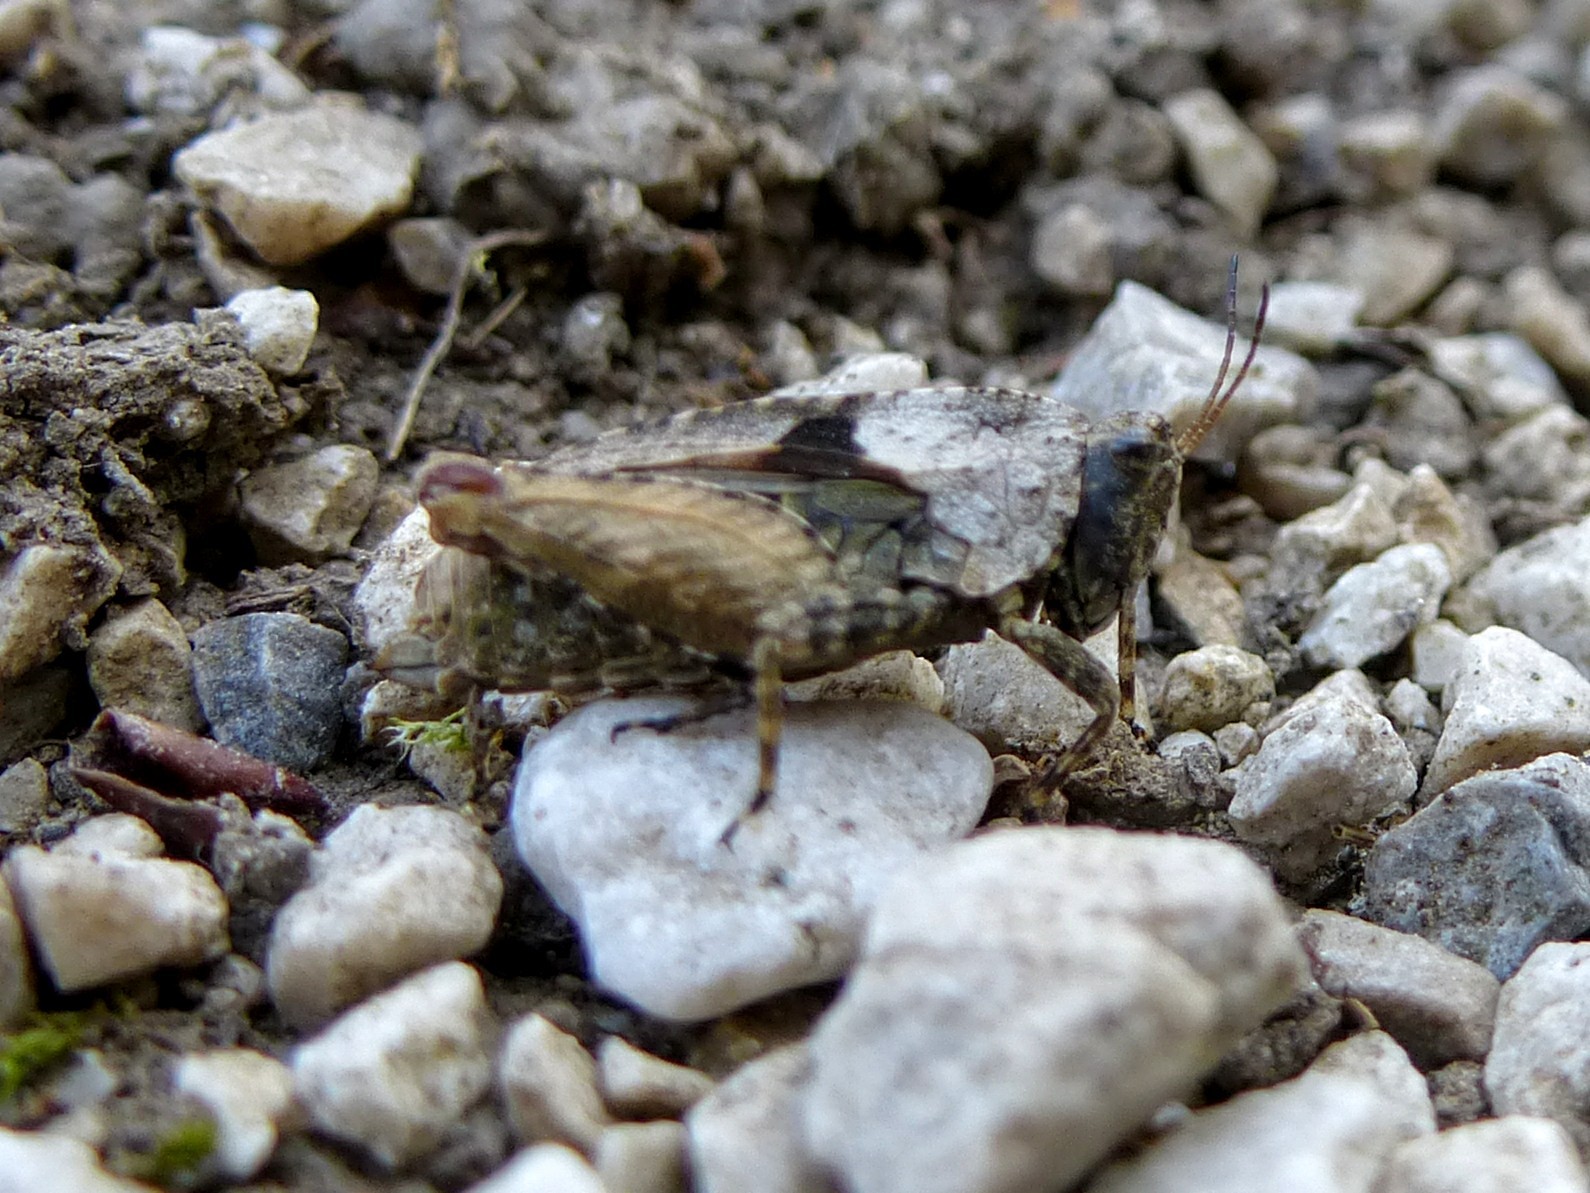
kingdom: Animalia
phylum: Arthropoda
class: Insecta
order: Orthoptera
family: Tetrigidae
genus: Tetrix
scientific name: Tetrix tenuicornis
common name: Long-horned groundhopper
